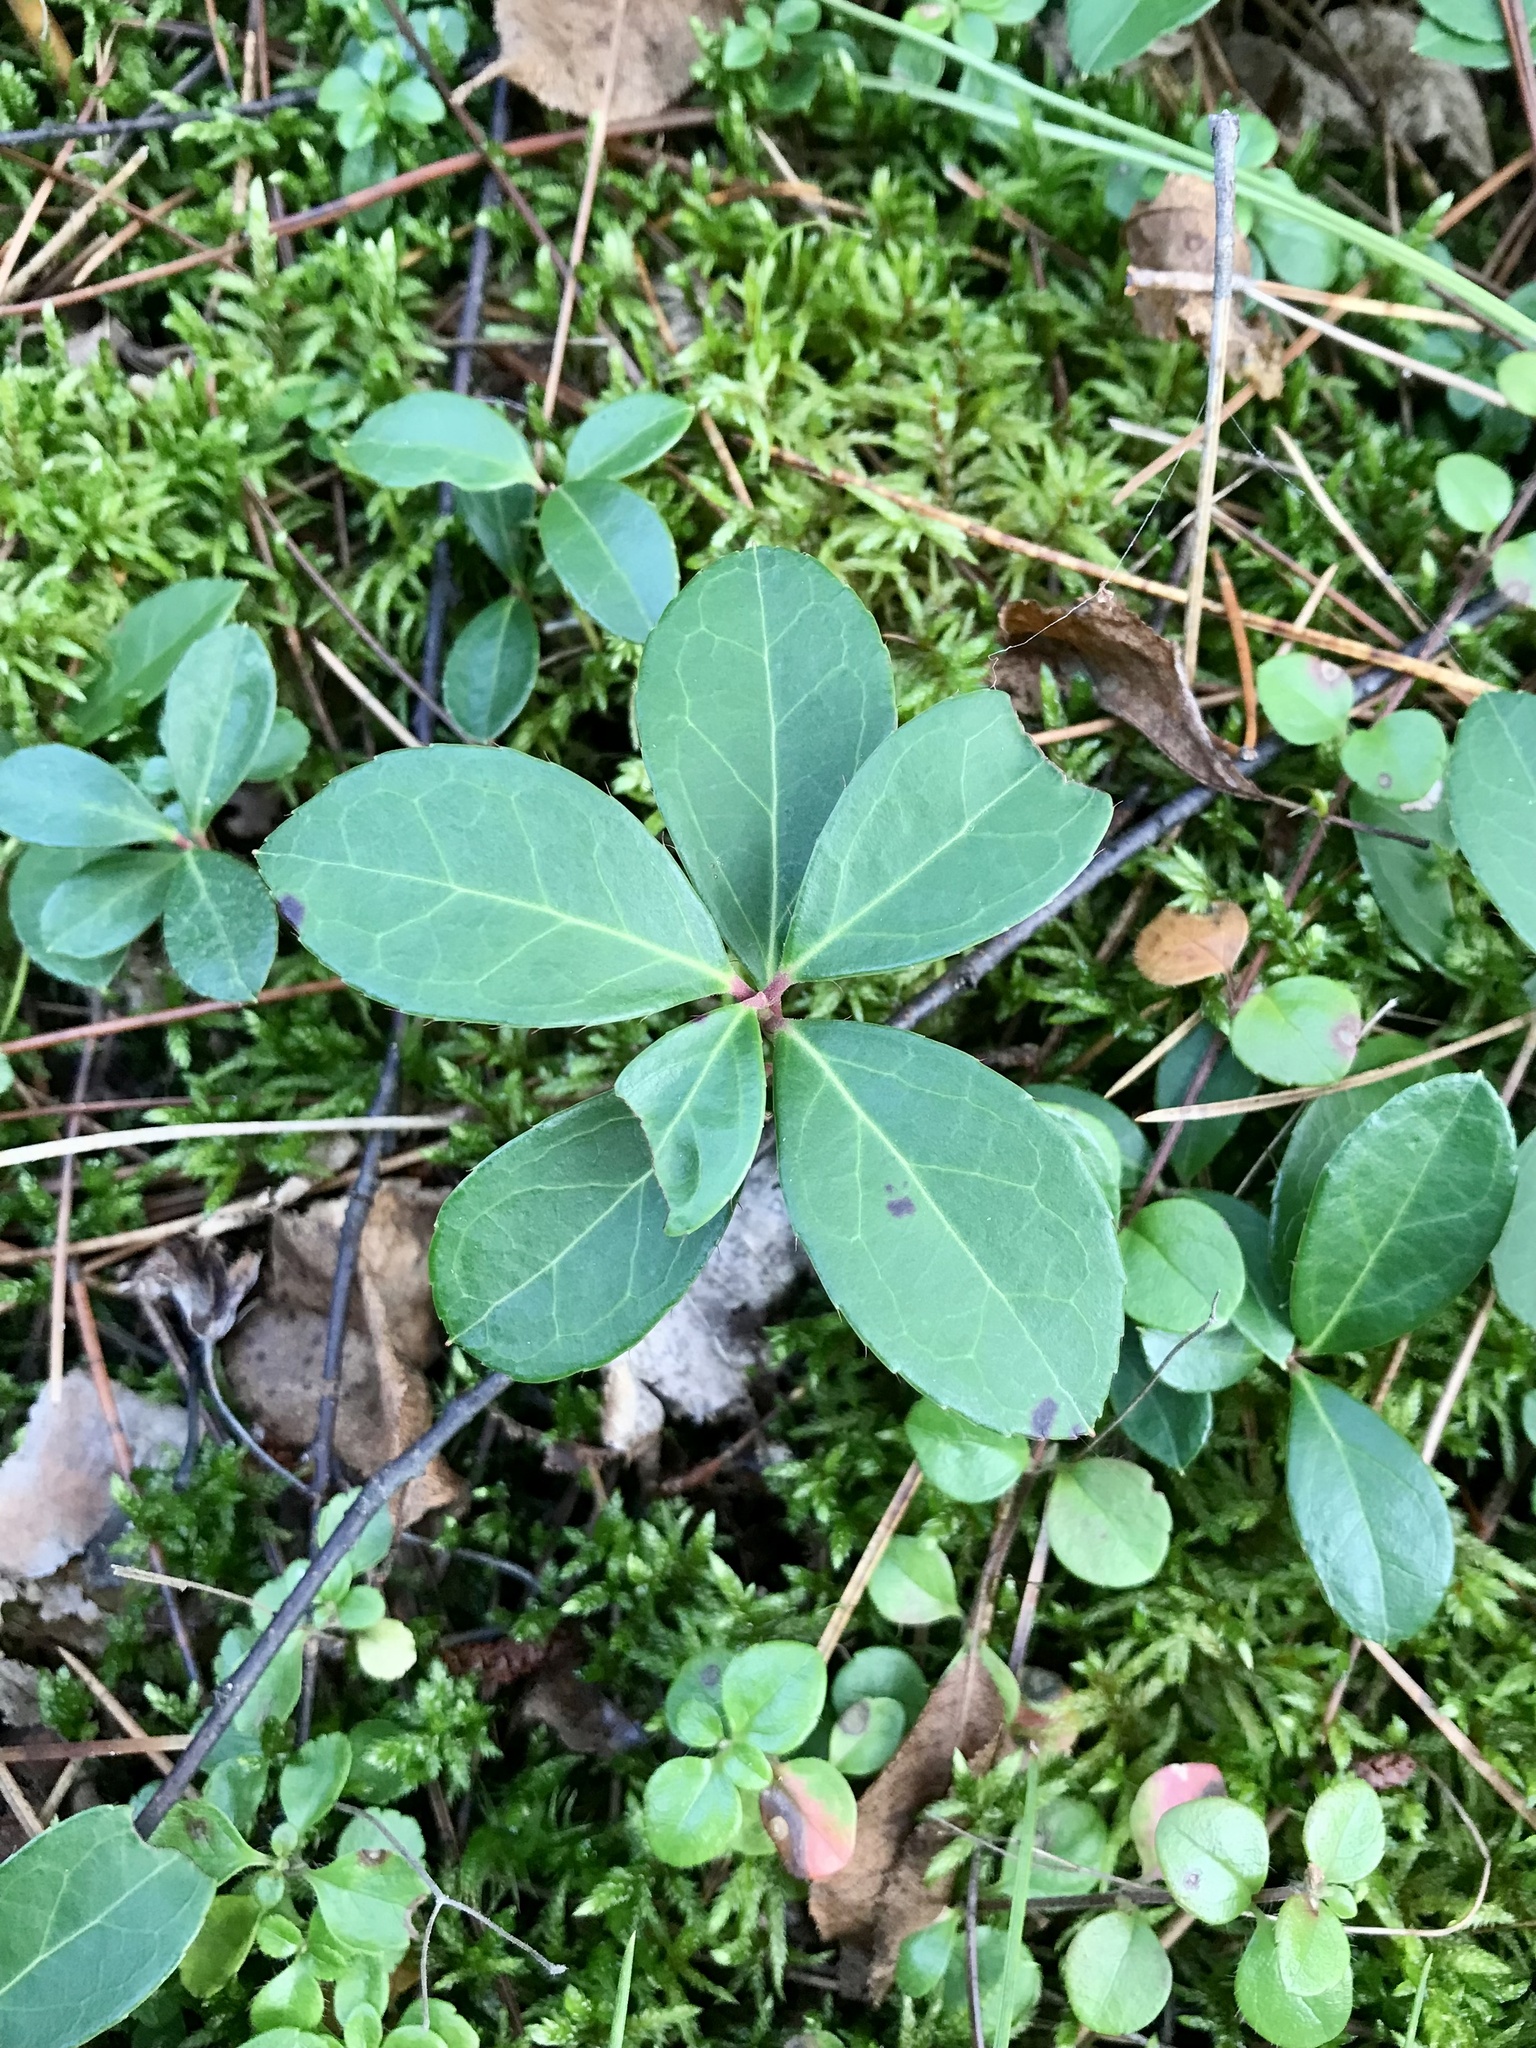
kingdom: Plantae
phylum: Tracheophyta
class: Magnoliopsida
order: Ericales
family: Ericaceae
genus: Gaultheria
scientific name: Gaultheria procumbens
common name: Checkerberry
